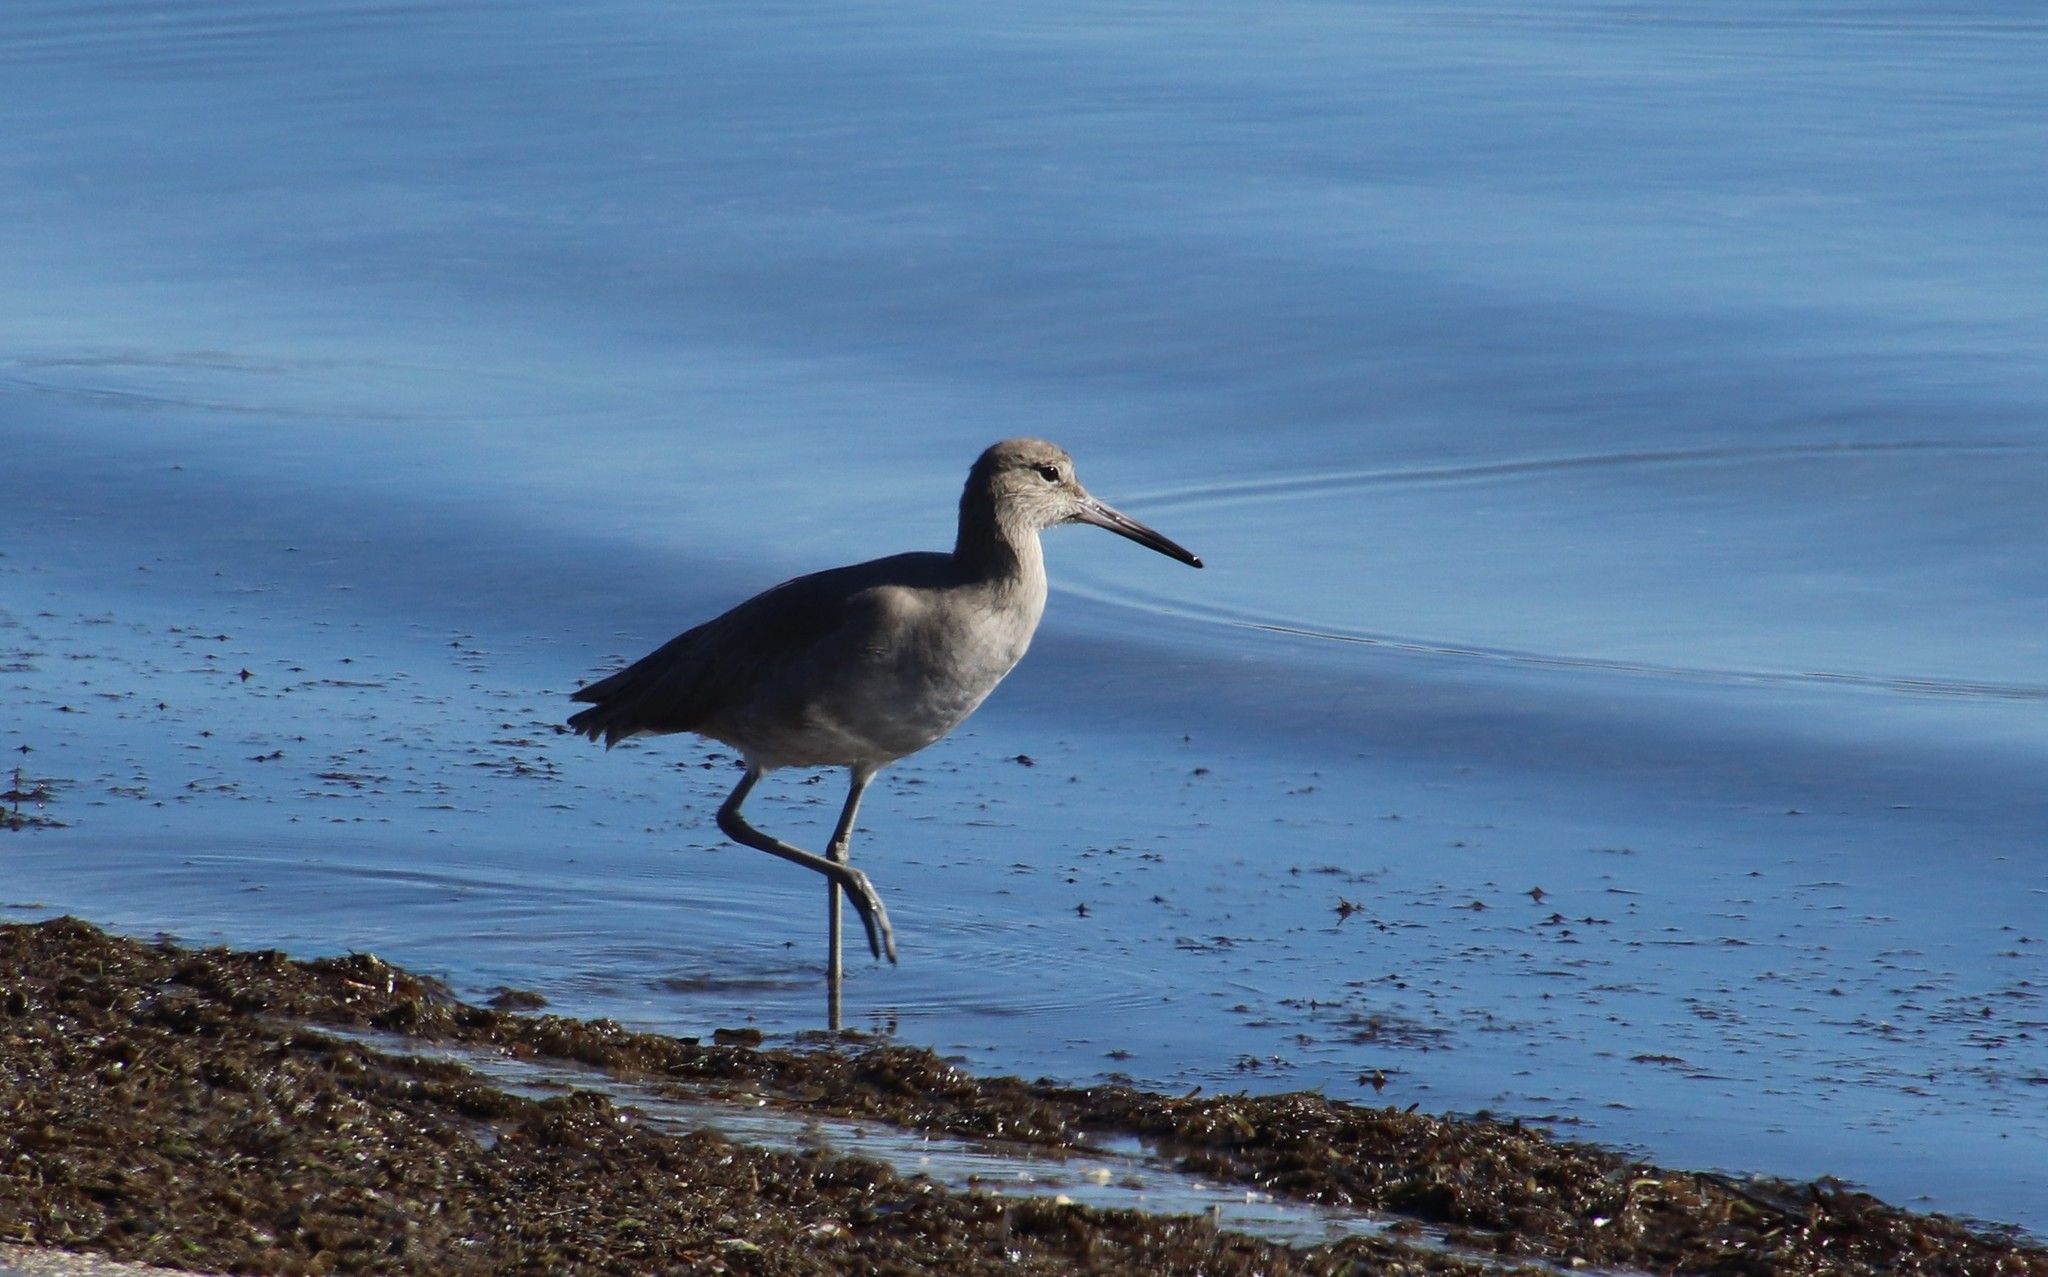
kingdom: Animalia
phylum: Chordata
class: Aves
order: Charadriiformes
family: Scolopacidae
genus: Tringa
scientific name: Tringa semipalmata
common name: Willet
